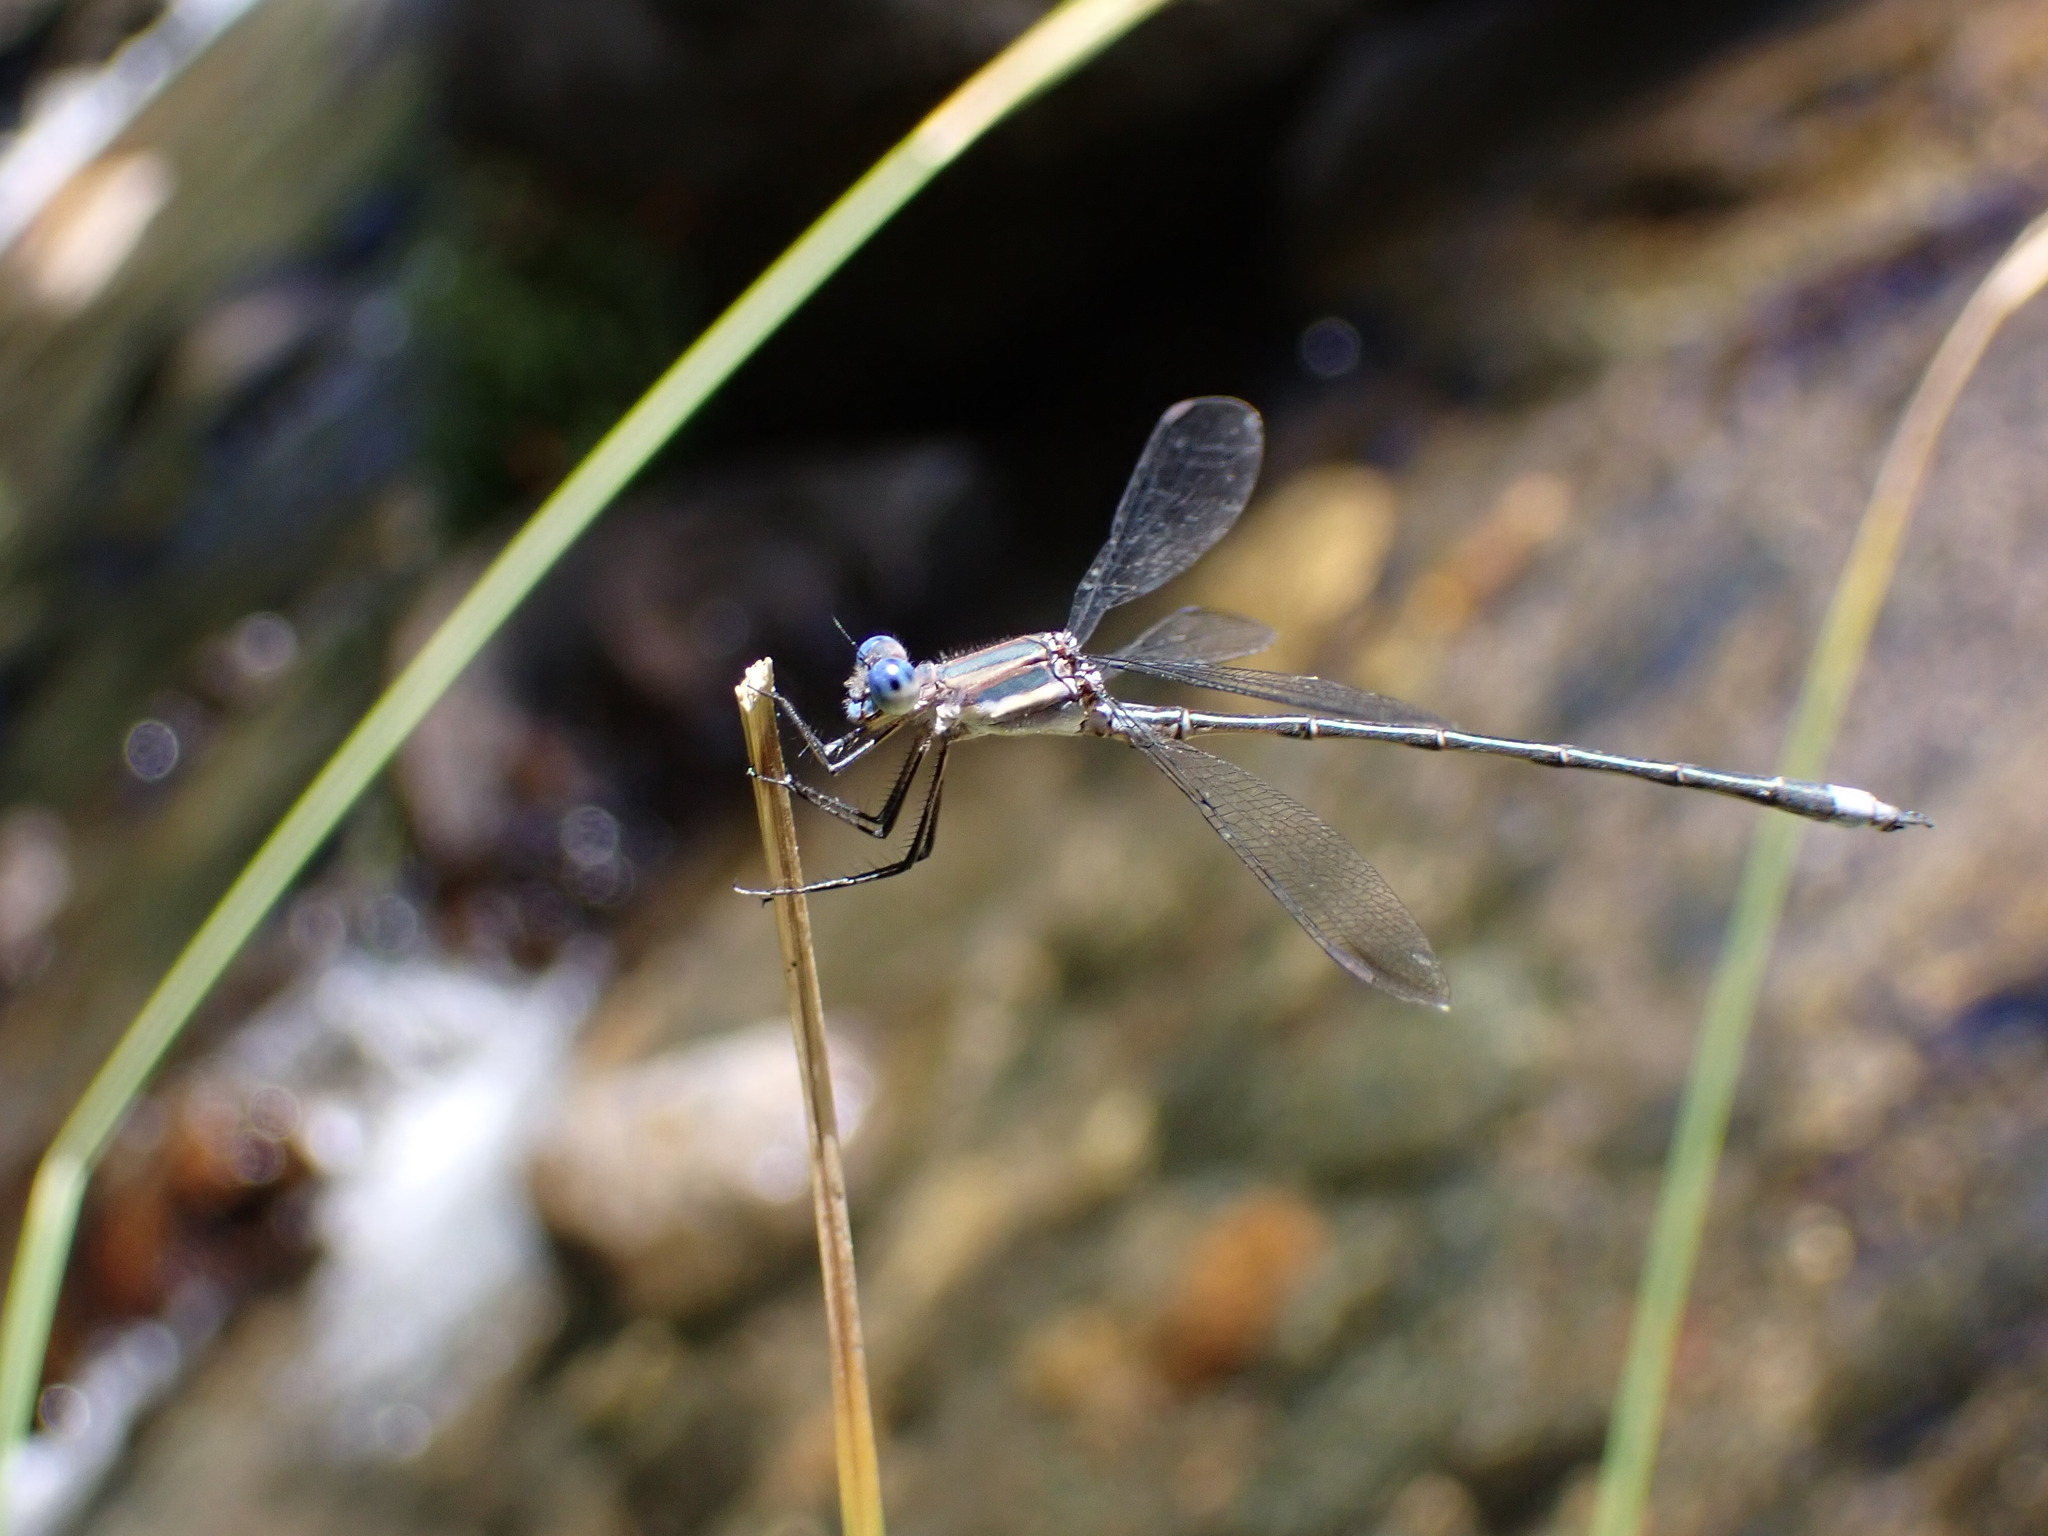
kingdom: Animalia
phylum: Arthropoda
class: Insecta
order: Odonata
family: Lestidae
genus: Archilestes
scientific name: Archilestes grandis
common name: Great spreadwing
